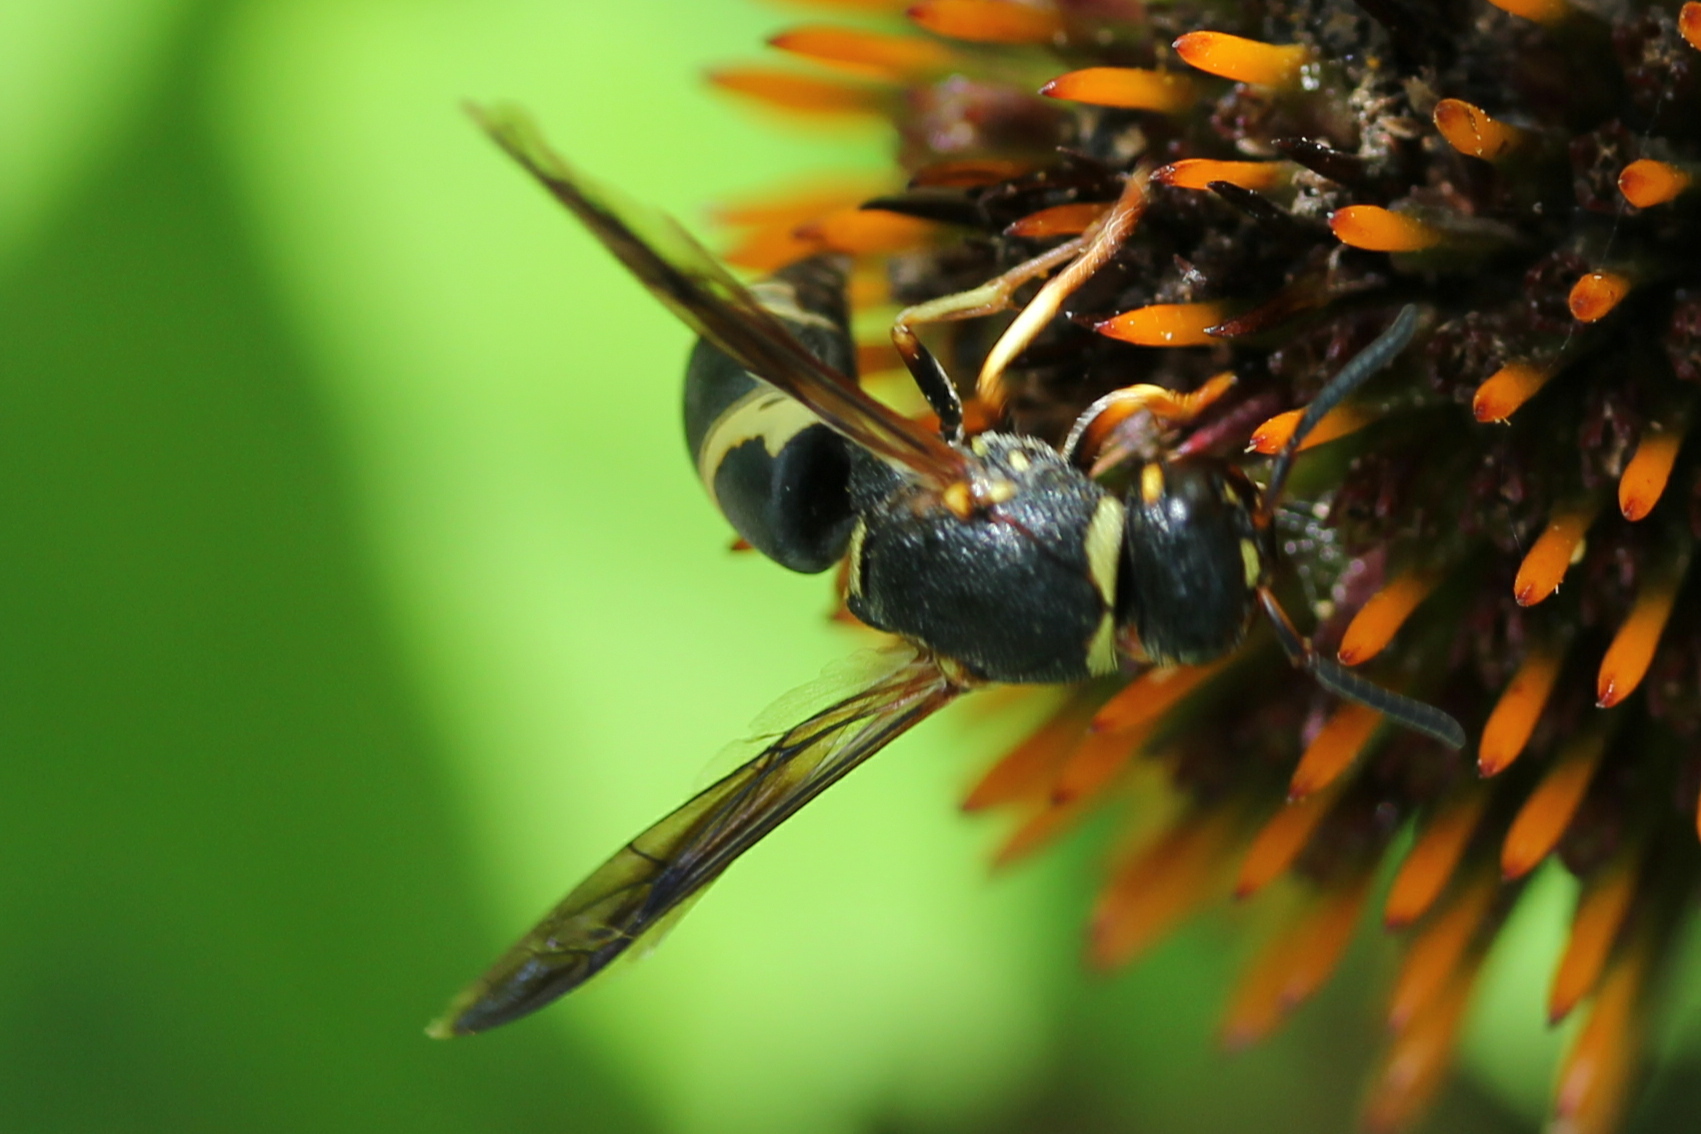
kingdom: Animalia
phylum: Arthropoda
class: Insecta
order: Hymenoptera
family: Eumenidae
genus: Euodynerus
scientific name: Euodynerus hidalgo
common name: Wasp
